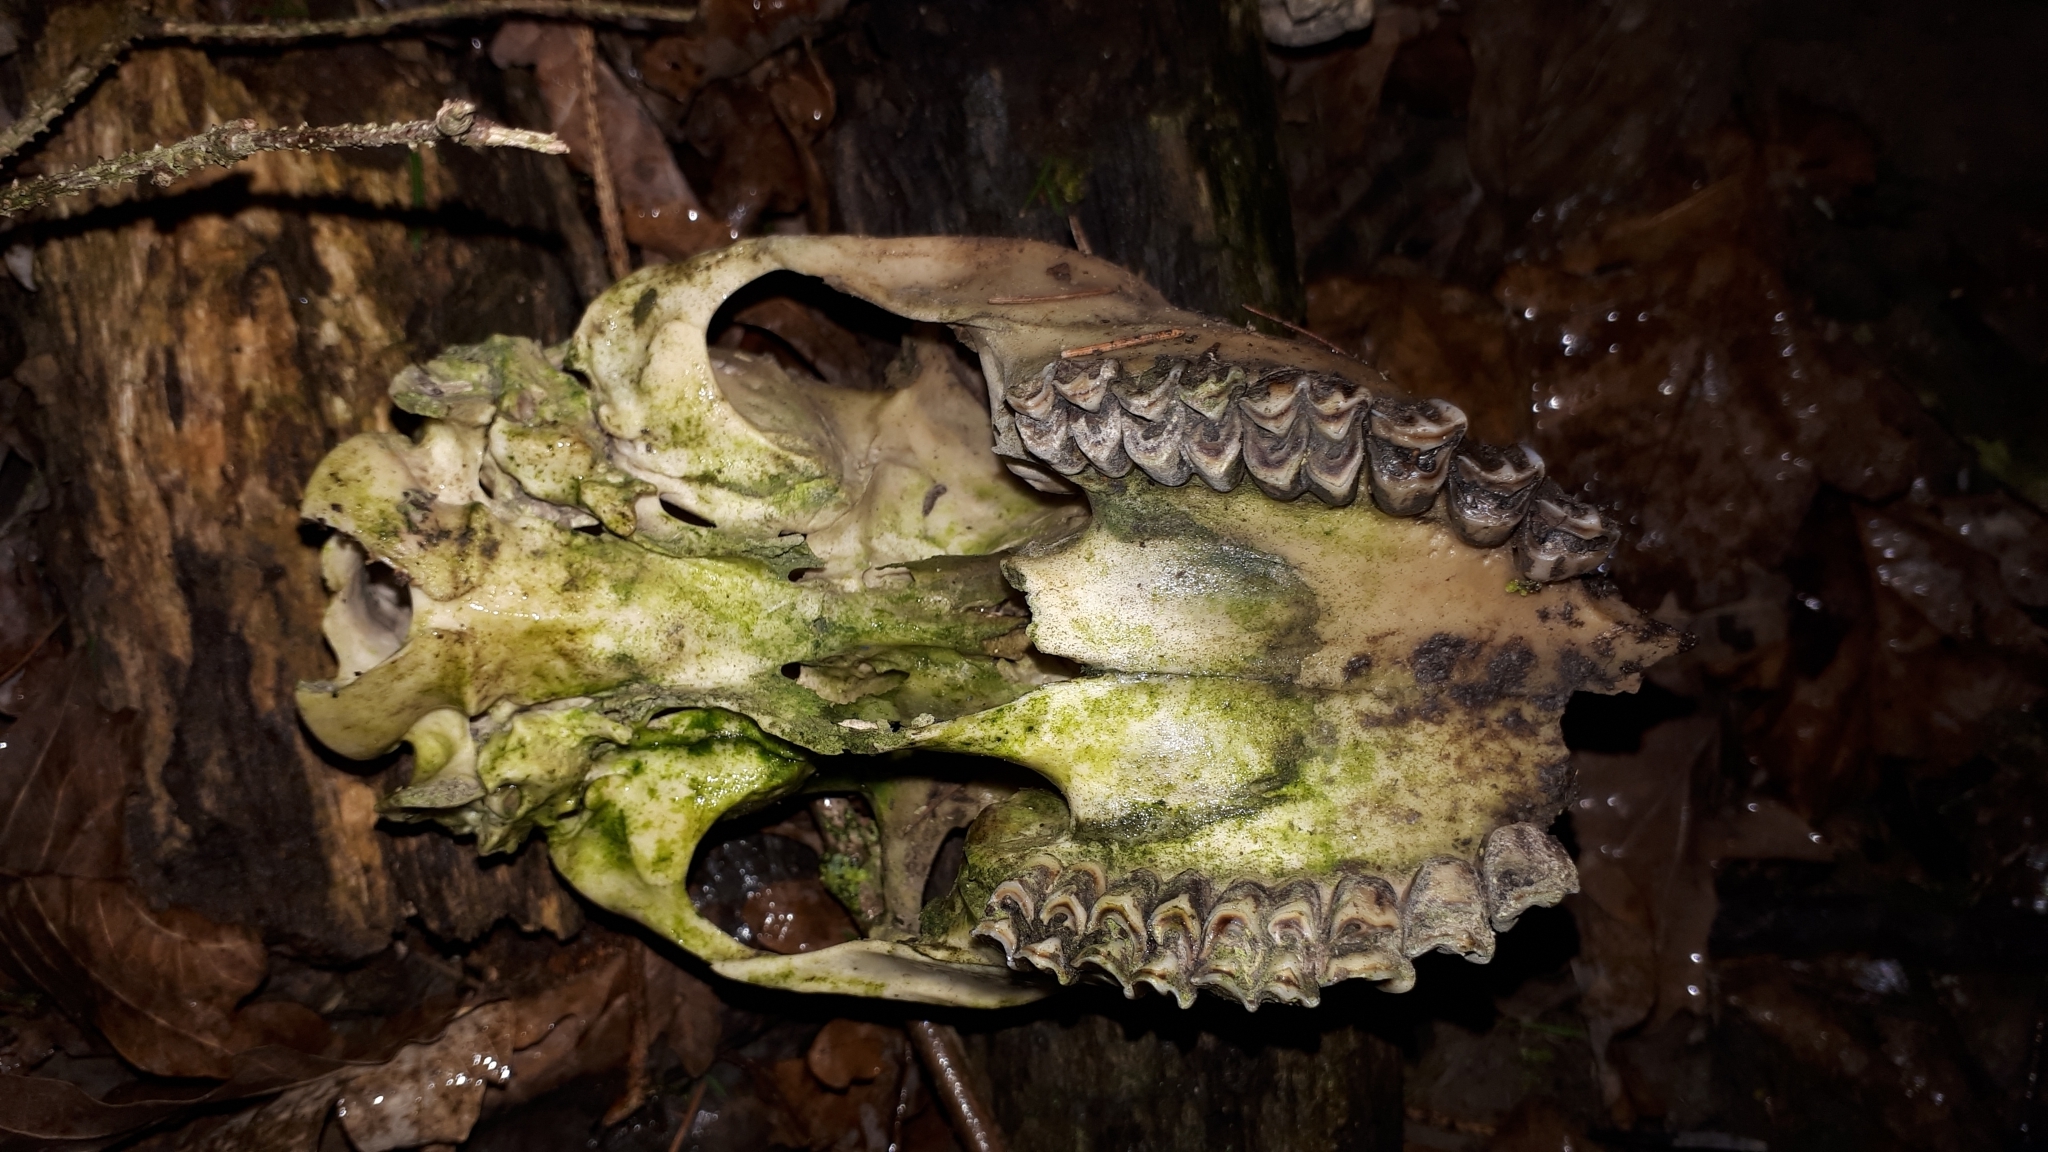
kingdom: Animalia
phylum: Chordata
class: Mammalia
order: Artiodactyla
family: Cervidae
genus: Capreolus
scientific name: Capreolus capreolus
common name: Western roe deer
